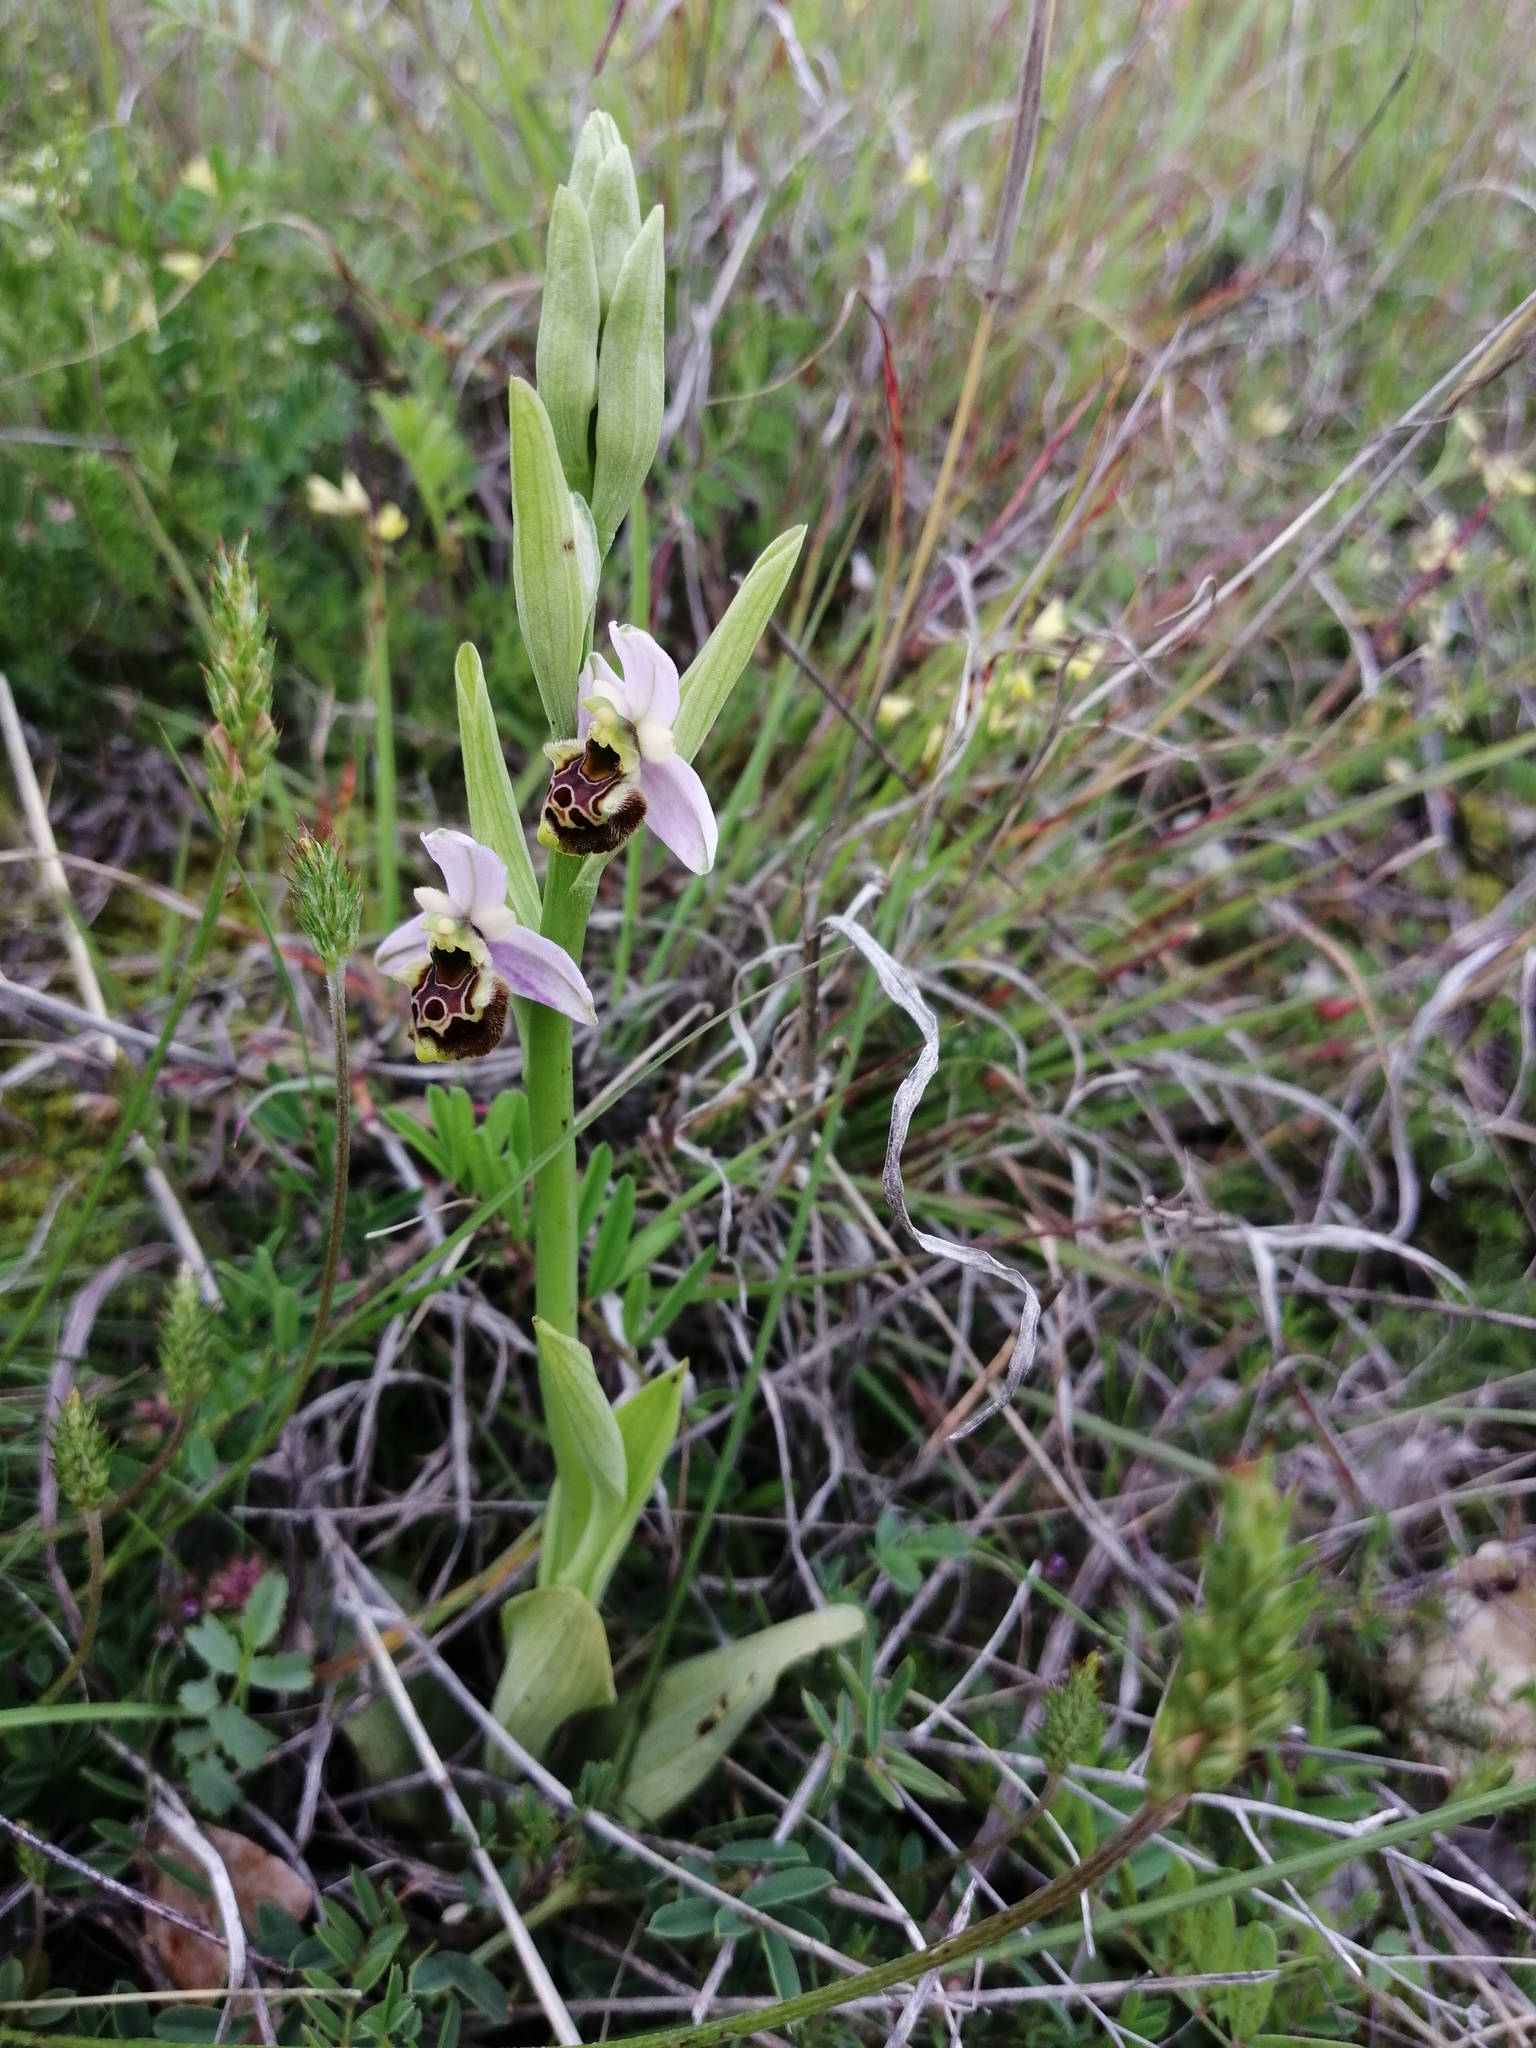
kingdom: Plantae
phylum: Tracheophyta
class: Liliopsida
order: Asparagales
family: Orchidaceae
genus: Ophrys
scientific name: Ophrys holosericea
